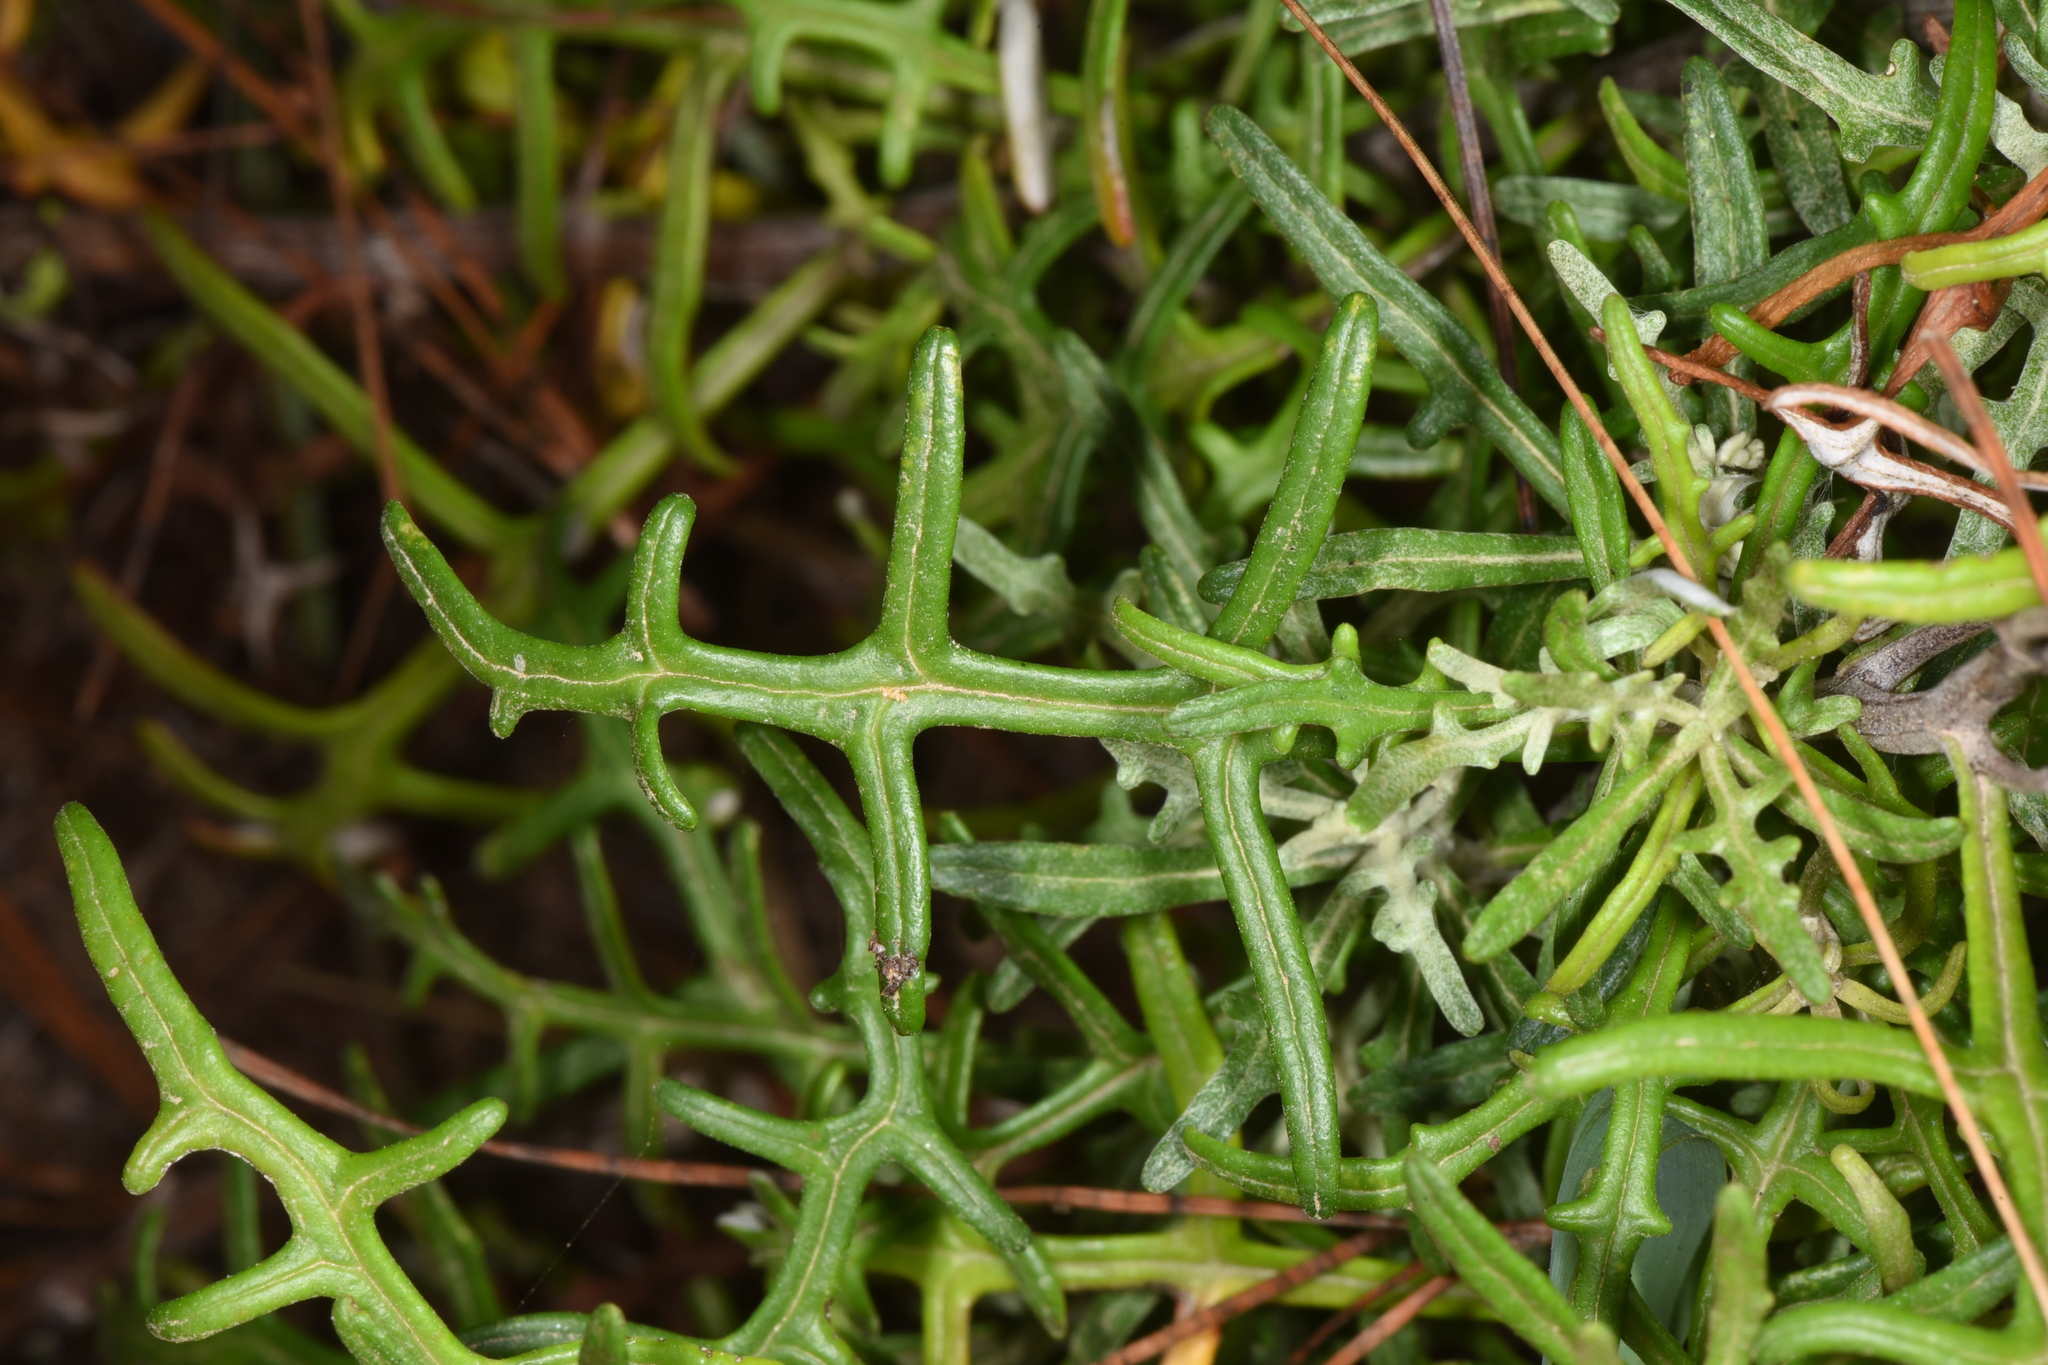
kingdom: Plantae
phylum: Tracheophyta
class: Magnoliopsida
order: Asterales
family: Asteraceae
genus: Eriophyllum
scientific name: Eriophyllum staechadifolium
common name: Lizardtail
